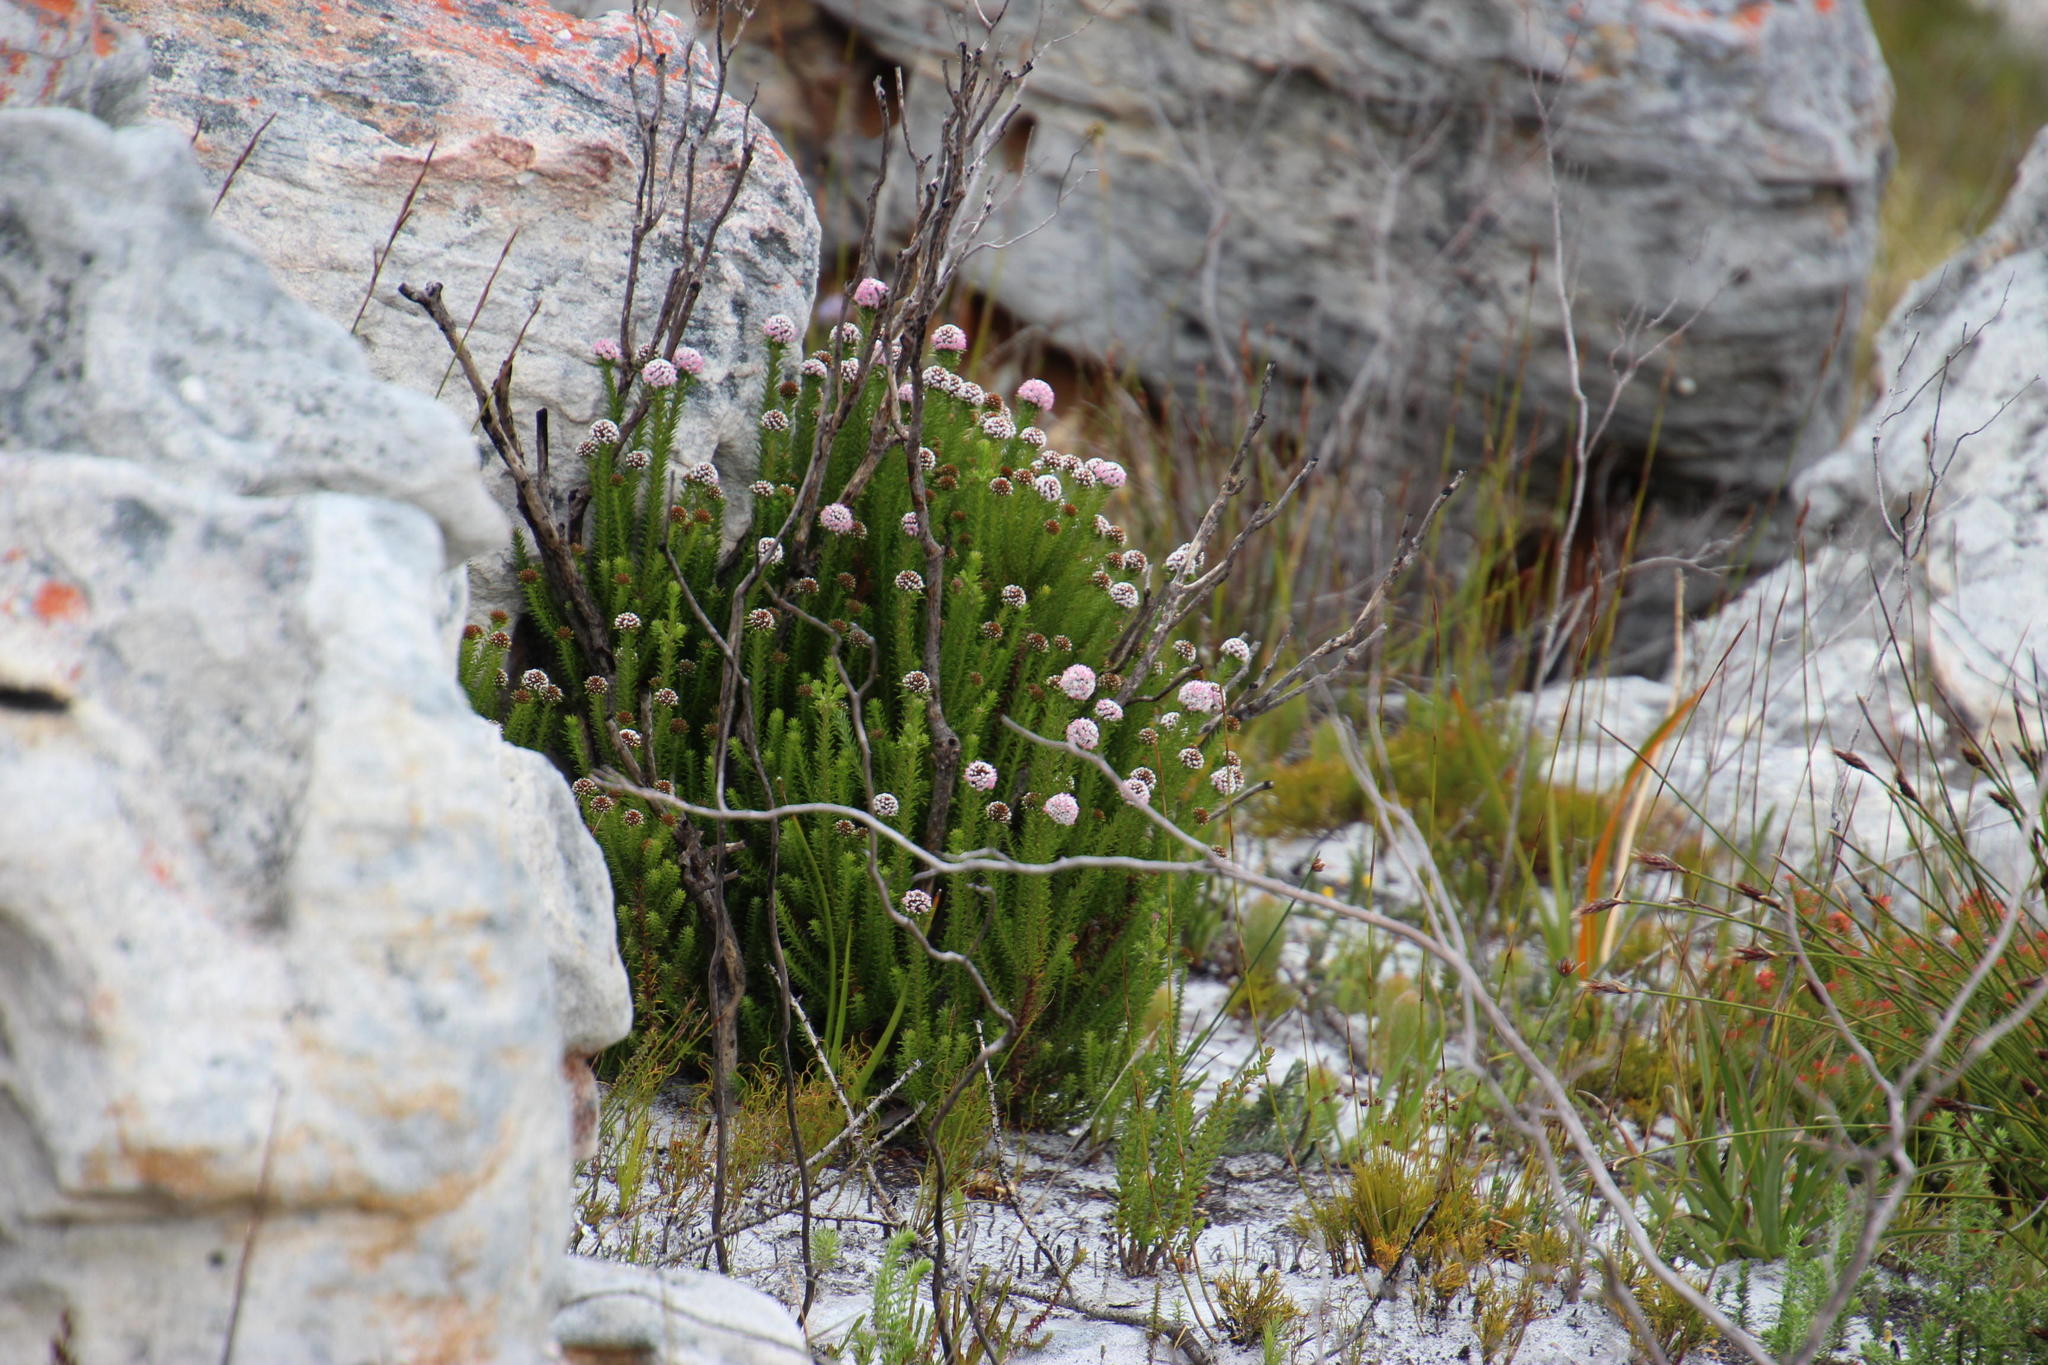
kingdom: Plantae
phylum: Tracheophyta
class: Magnoliopsida
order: Asterales
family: Asteraceae
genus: Stoebe
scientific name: Stoebe rosea
